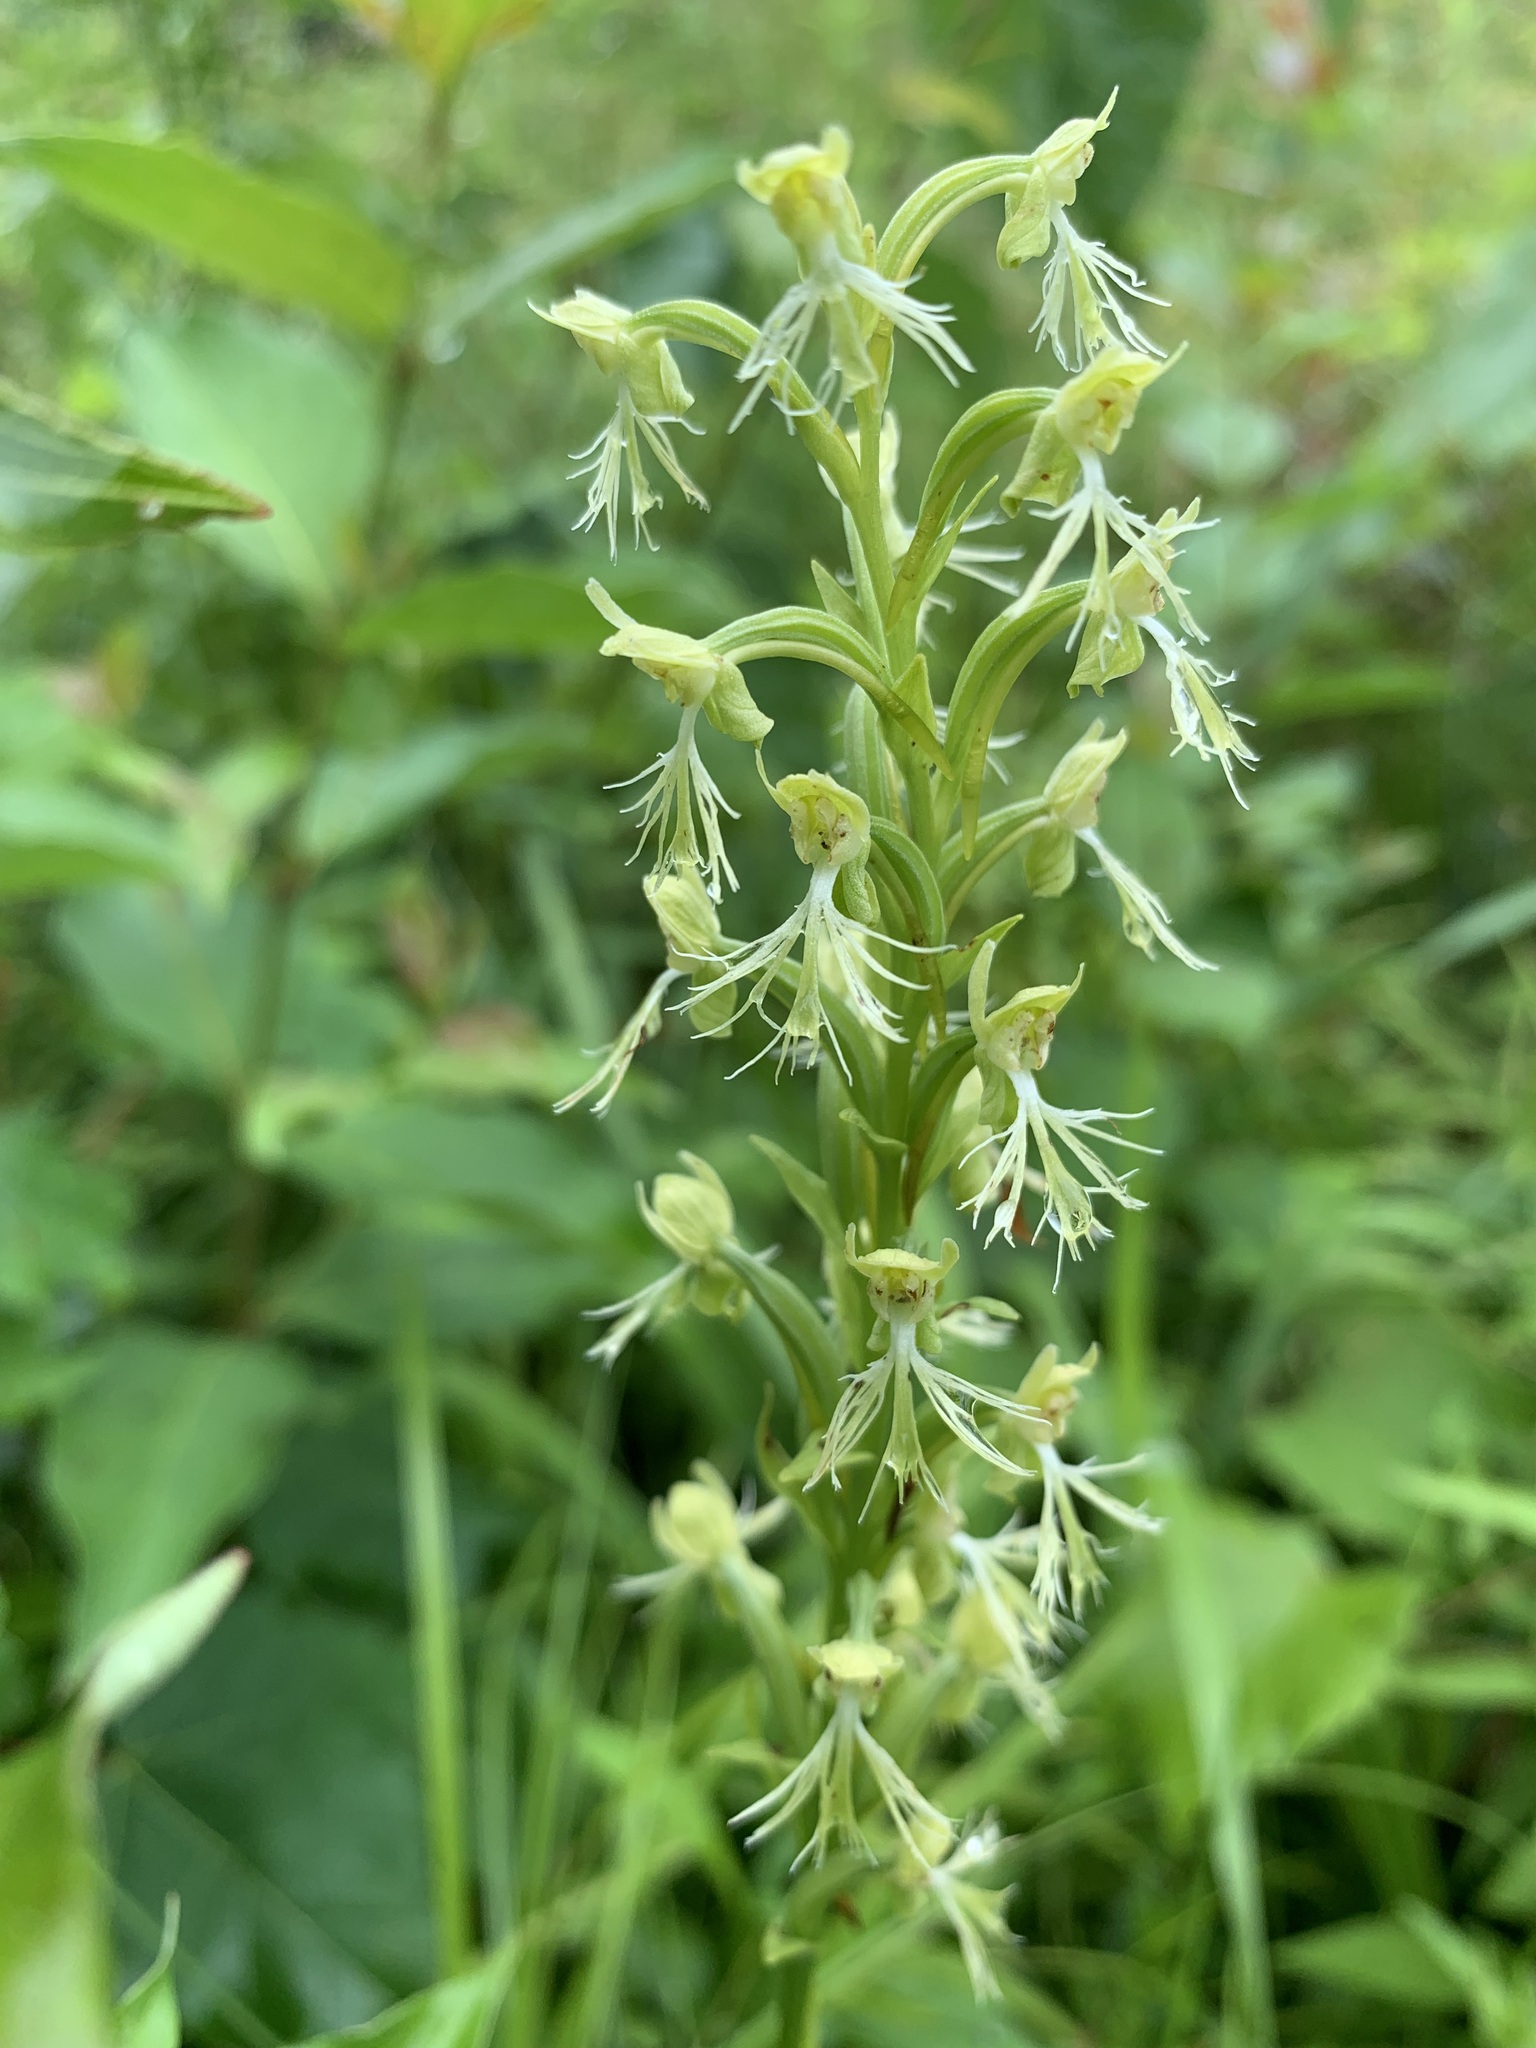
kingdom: Plantae
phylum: Tracheophyta
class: Liliopsida
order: Asparagales
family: Orchidaceae
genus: Platanthera
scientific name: Platanthera lacera
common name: Green fringed orchid
